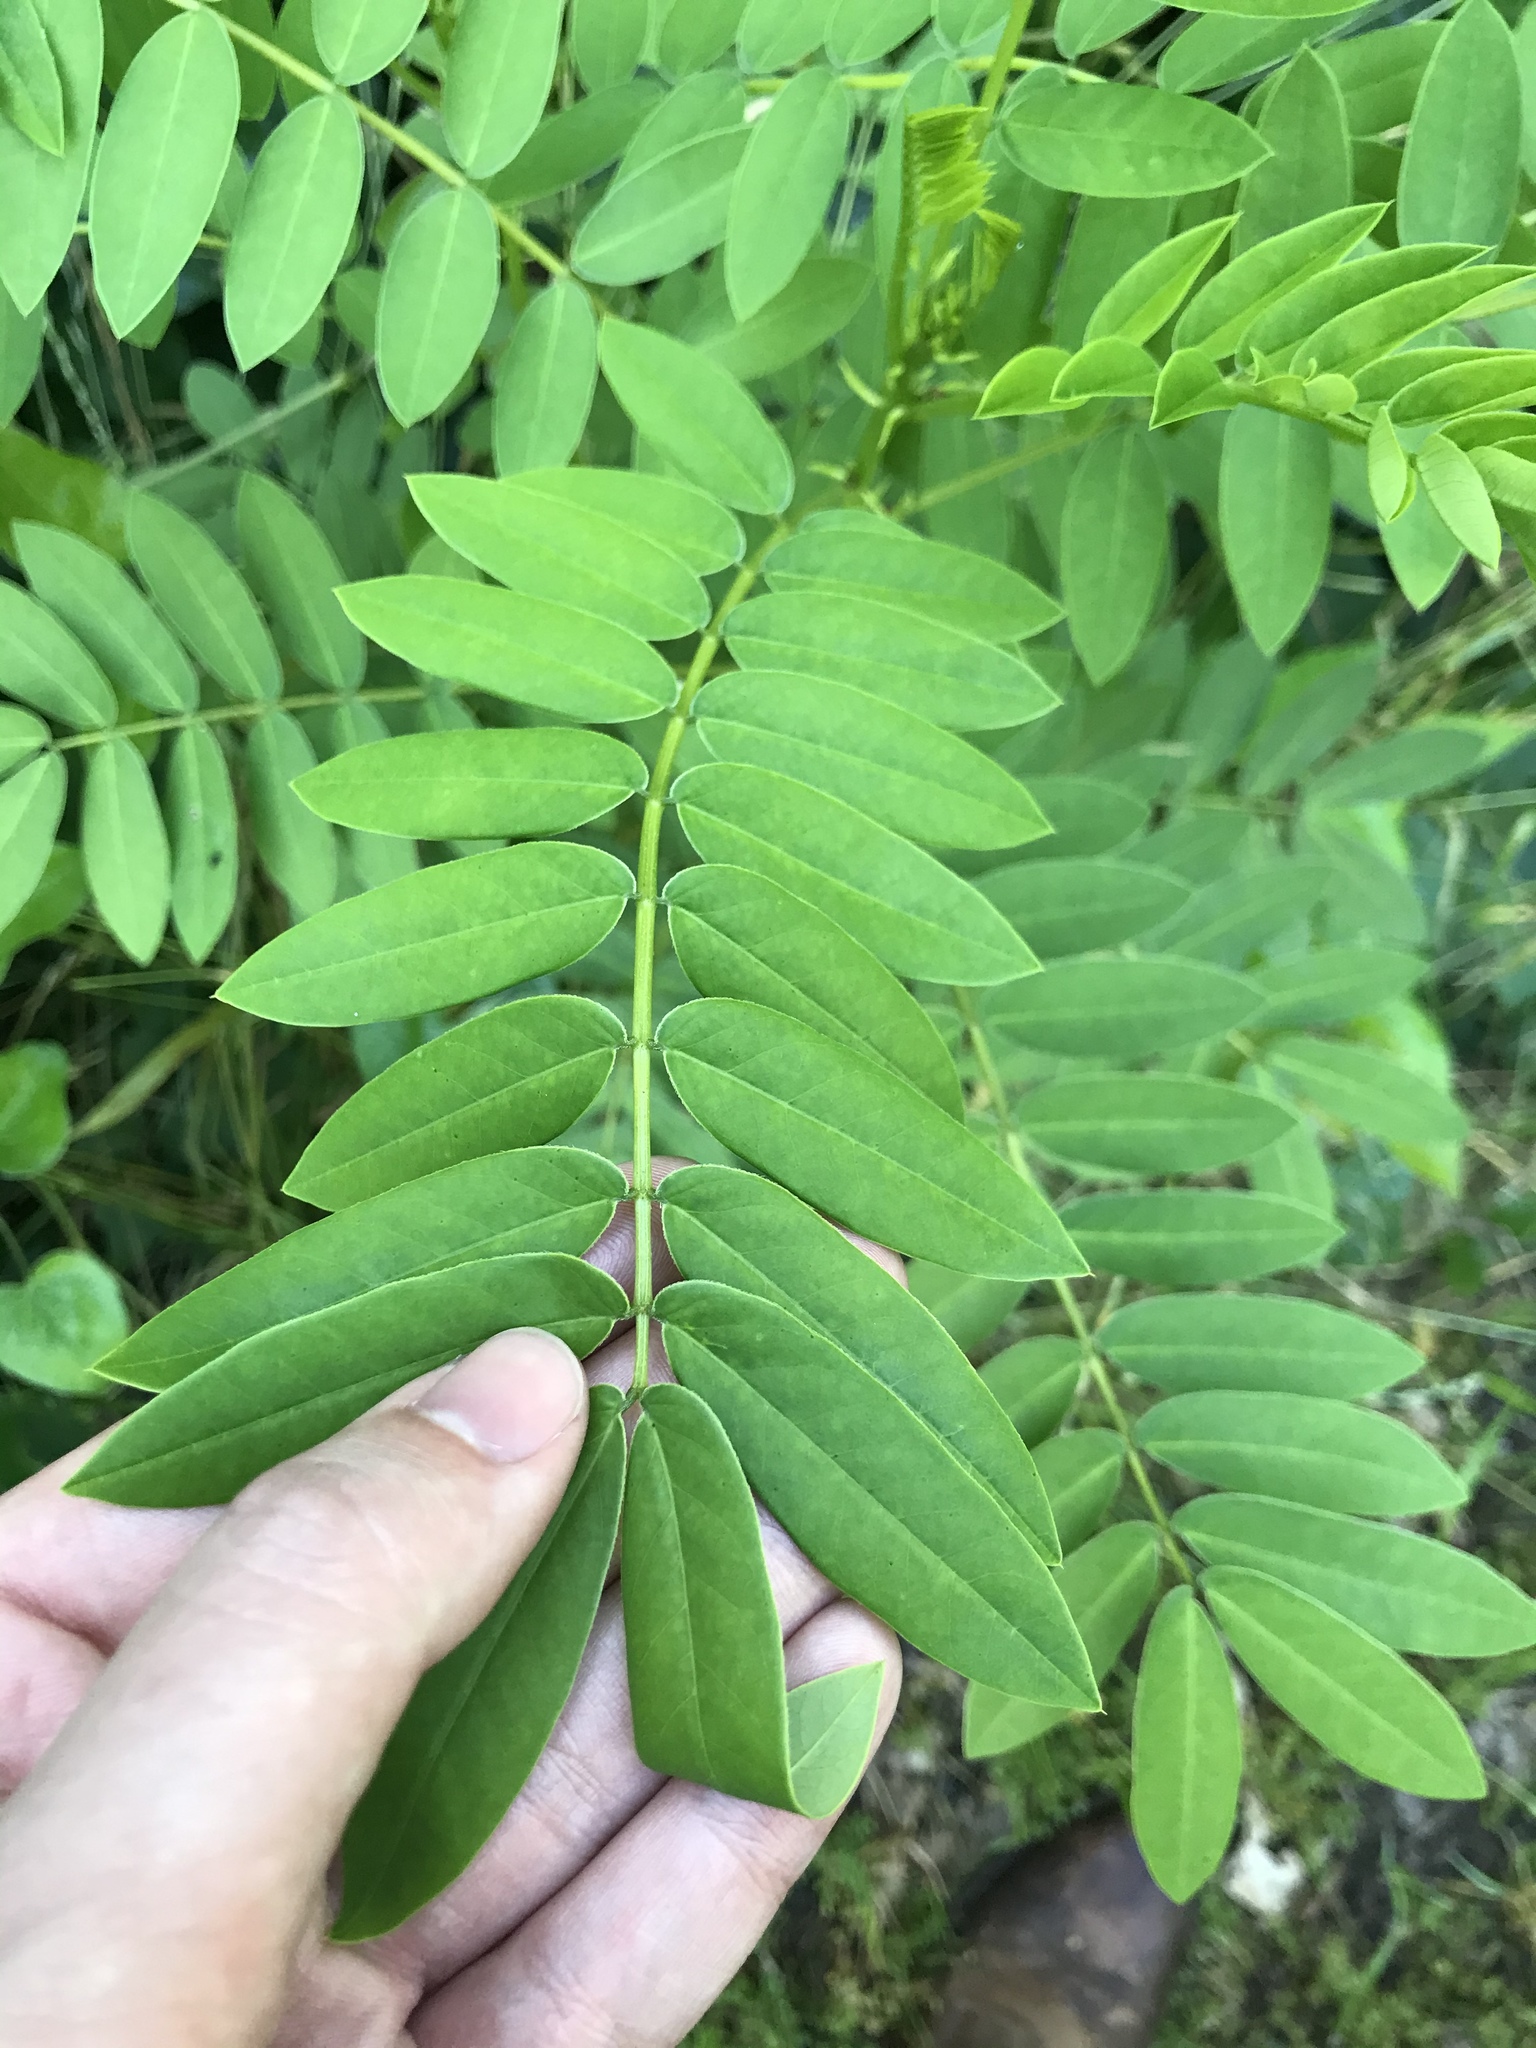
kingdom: Plantae
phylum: Tracheophyta
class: Magnoliopsida
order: Fabales
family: Fabaceae
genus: Senna
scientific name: Senna marilandica
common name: American senna
